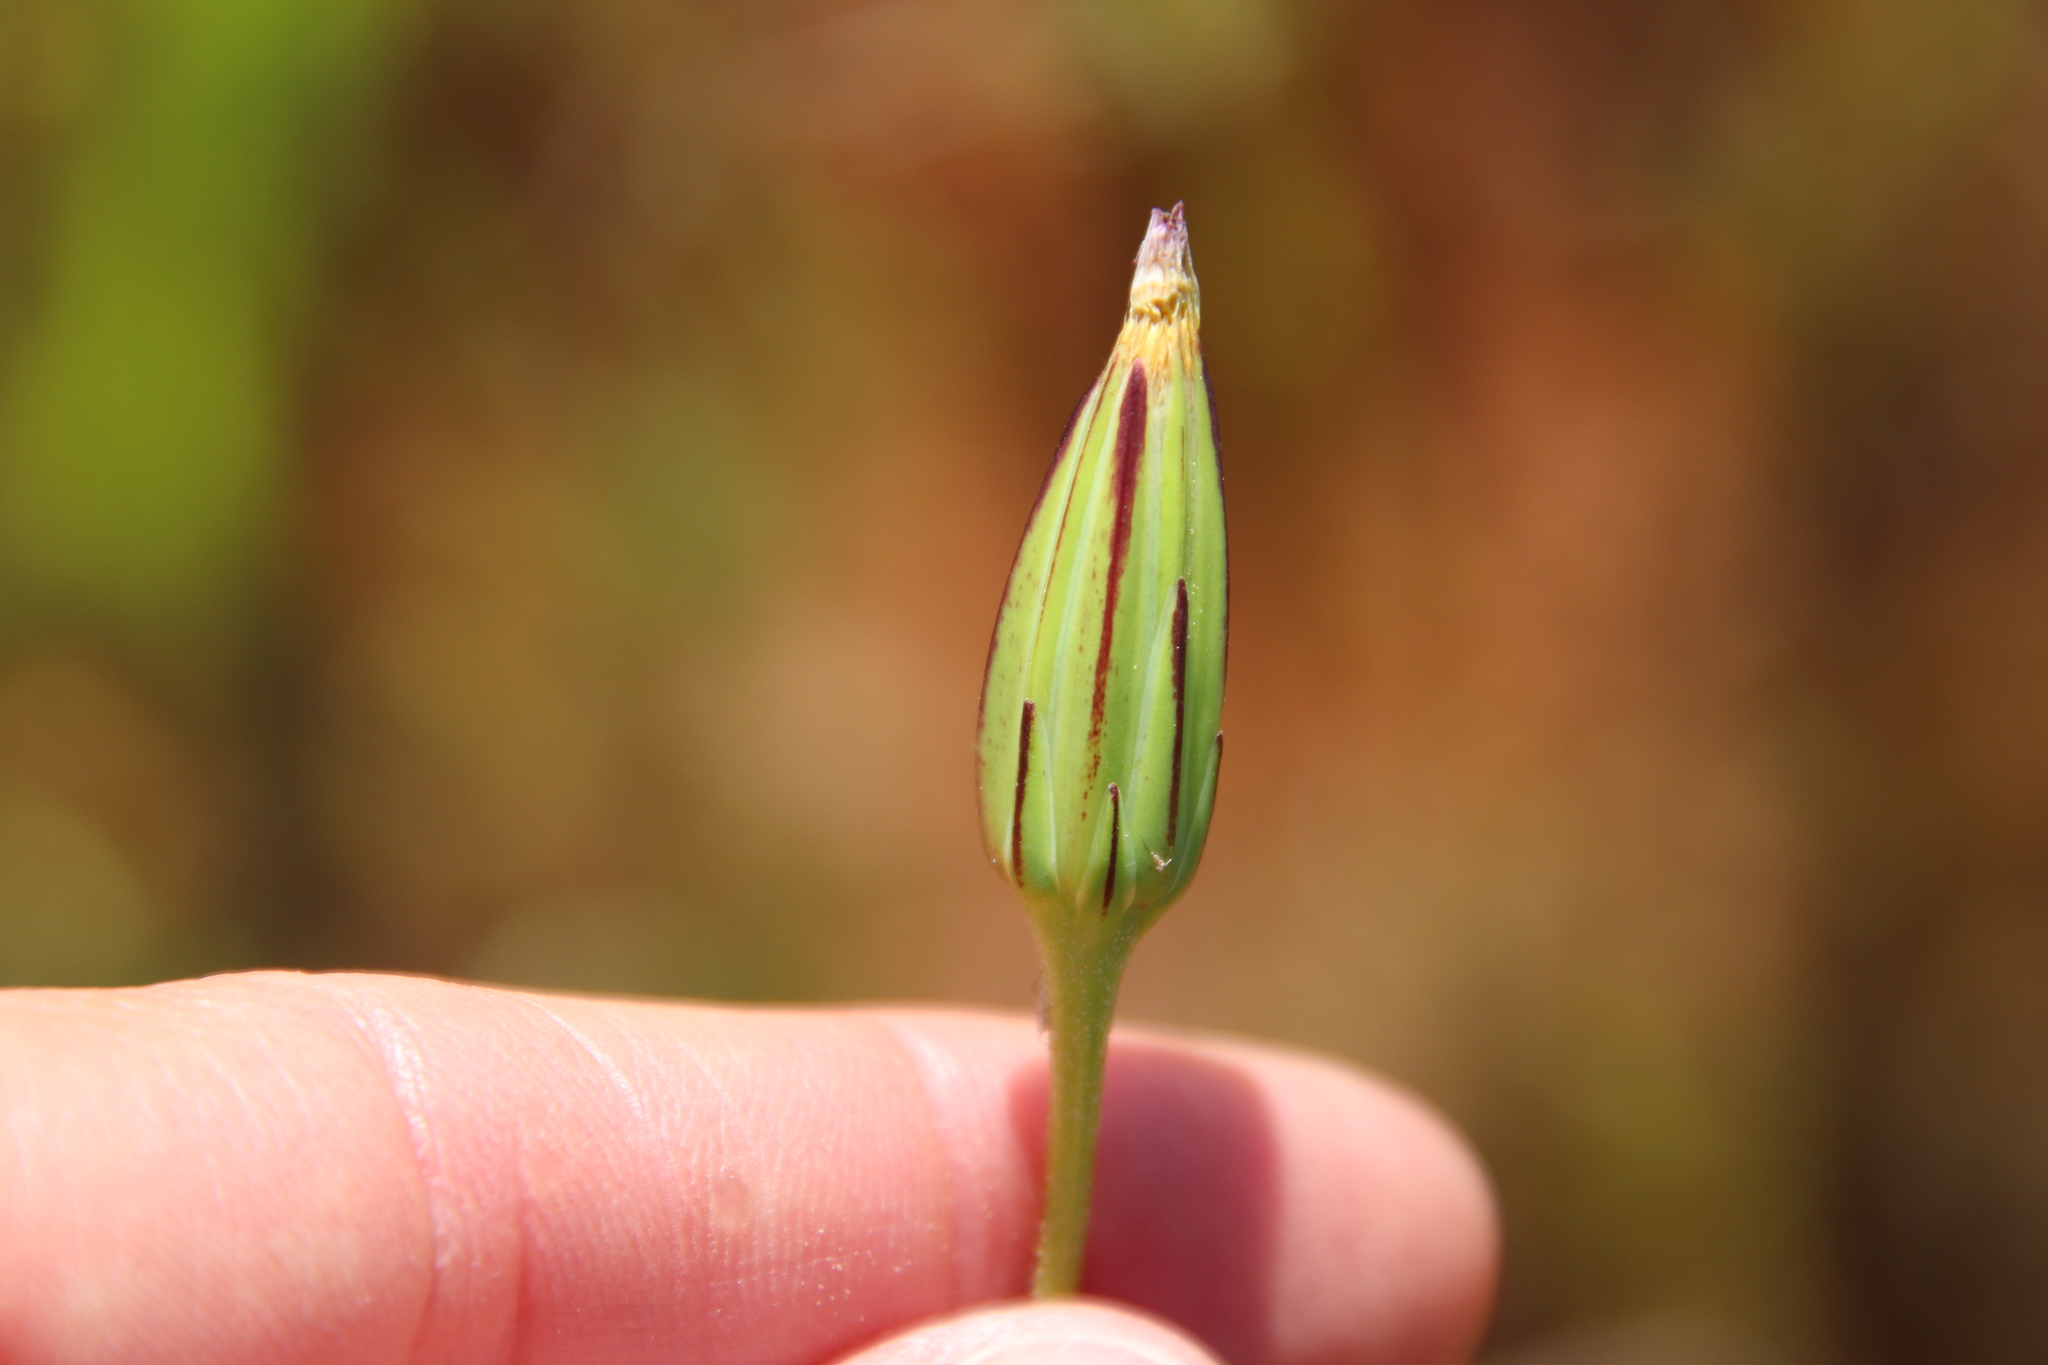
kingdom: Plantae
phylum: Tracheophyta
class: Magnoliopsida
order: Asterales
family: Asteraceae
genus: Microseris
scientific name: Microseris lindleyi
